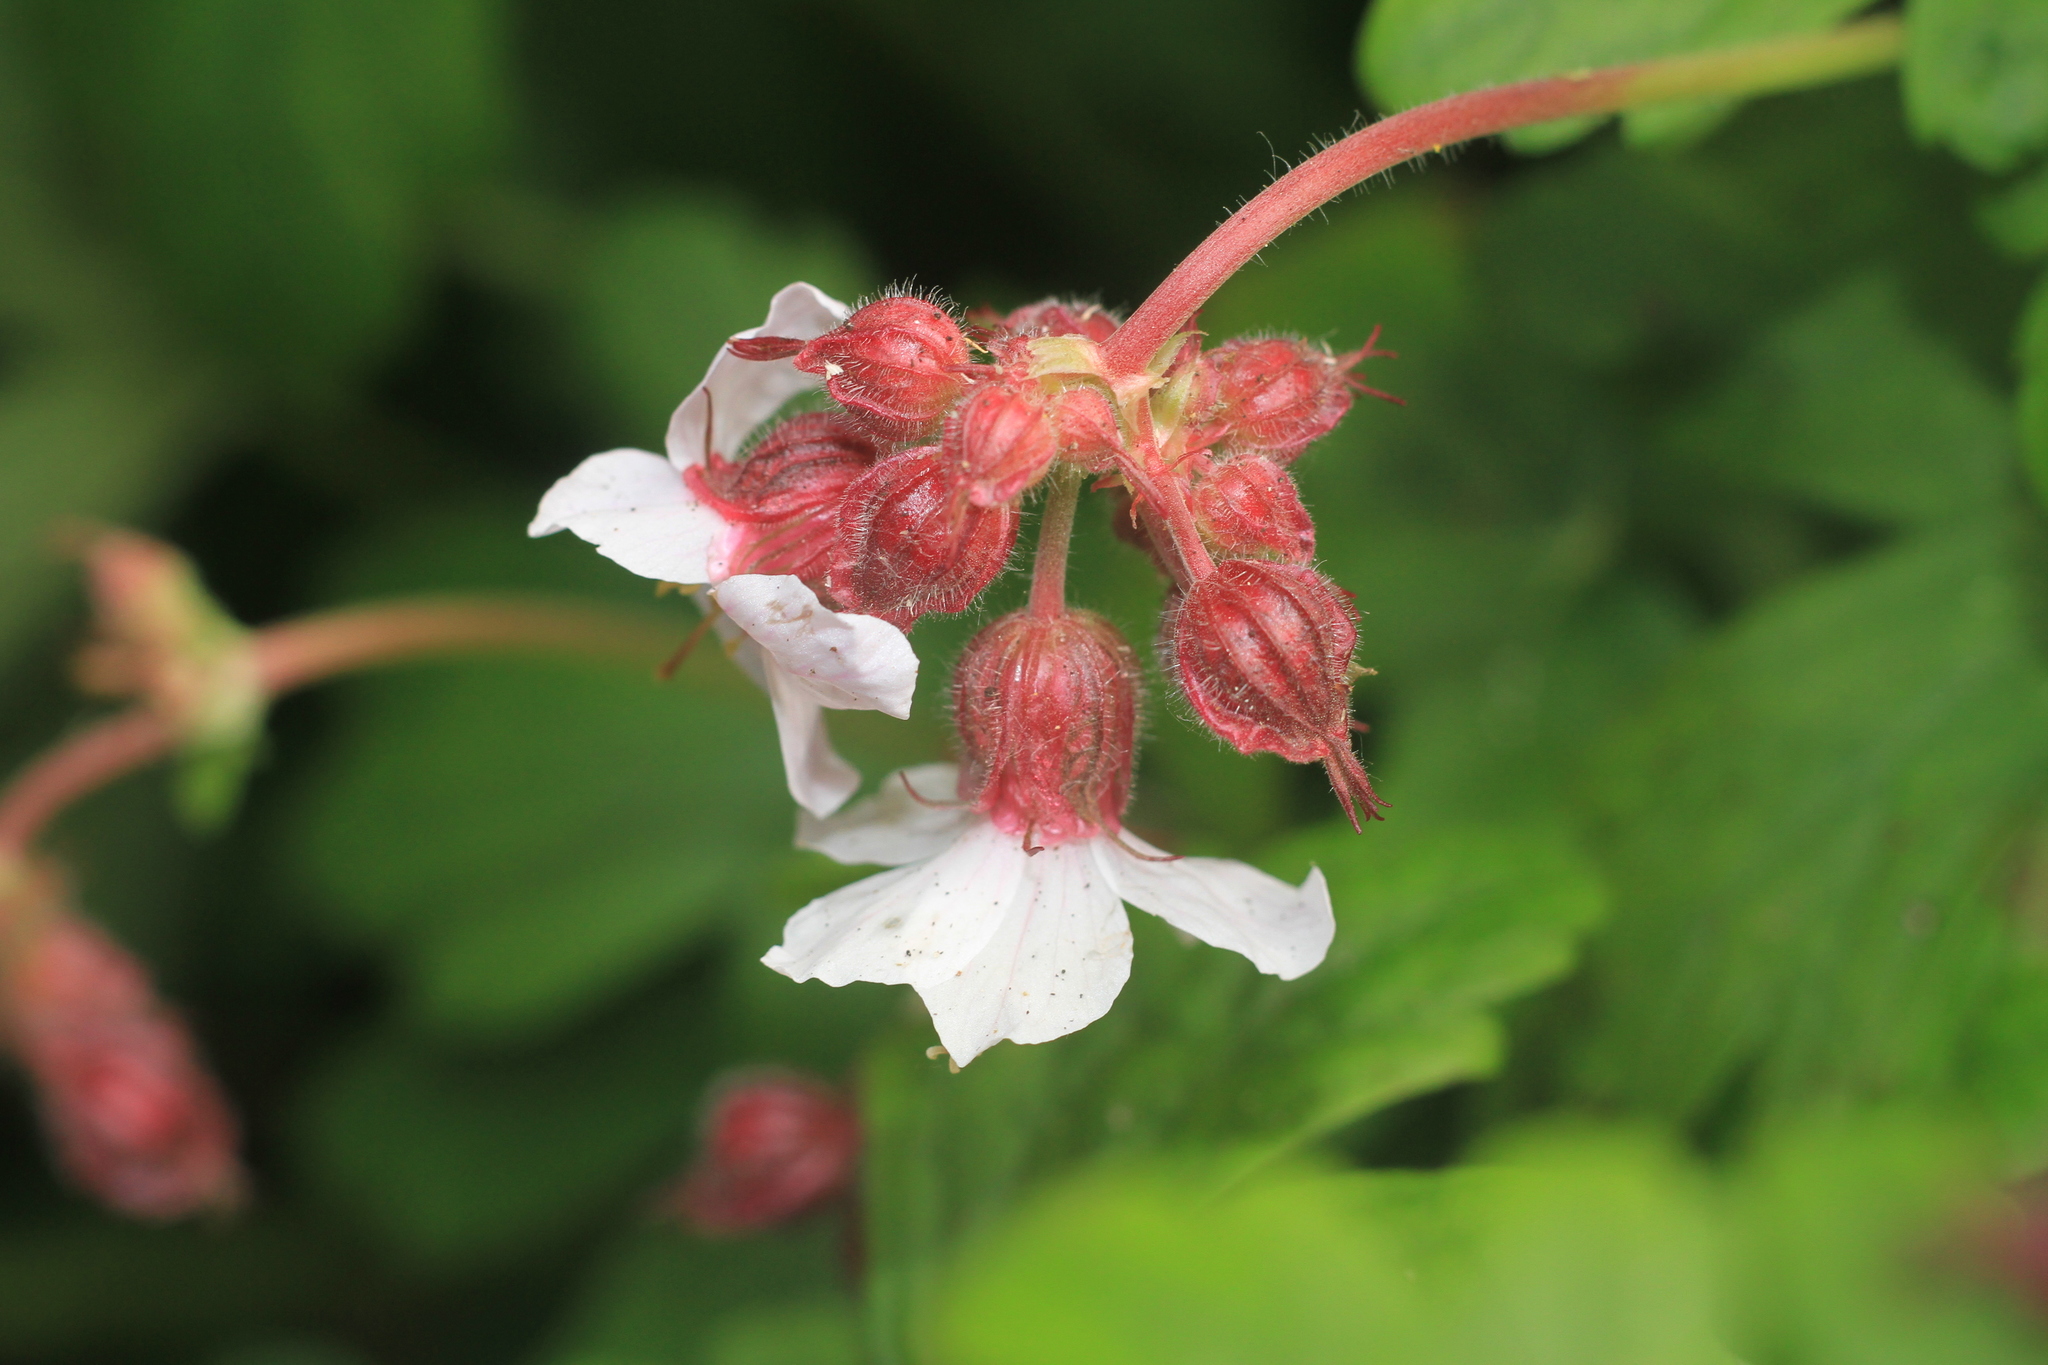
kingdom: Plantae
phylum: Tracheophyta
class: Magnoliopsida
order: Geraniales
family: Geraniaceae
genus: Geranium
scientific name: Geranium macrorrhizum
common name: Rock crane's-bill
